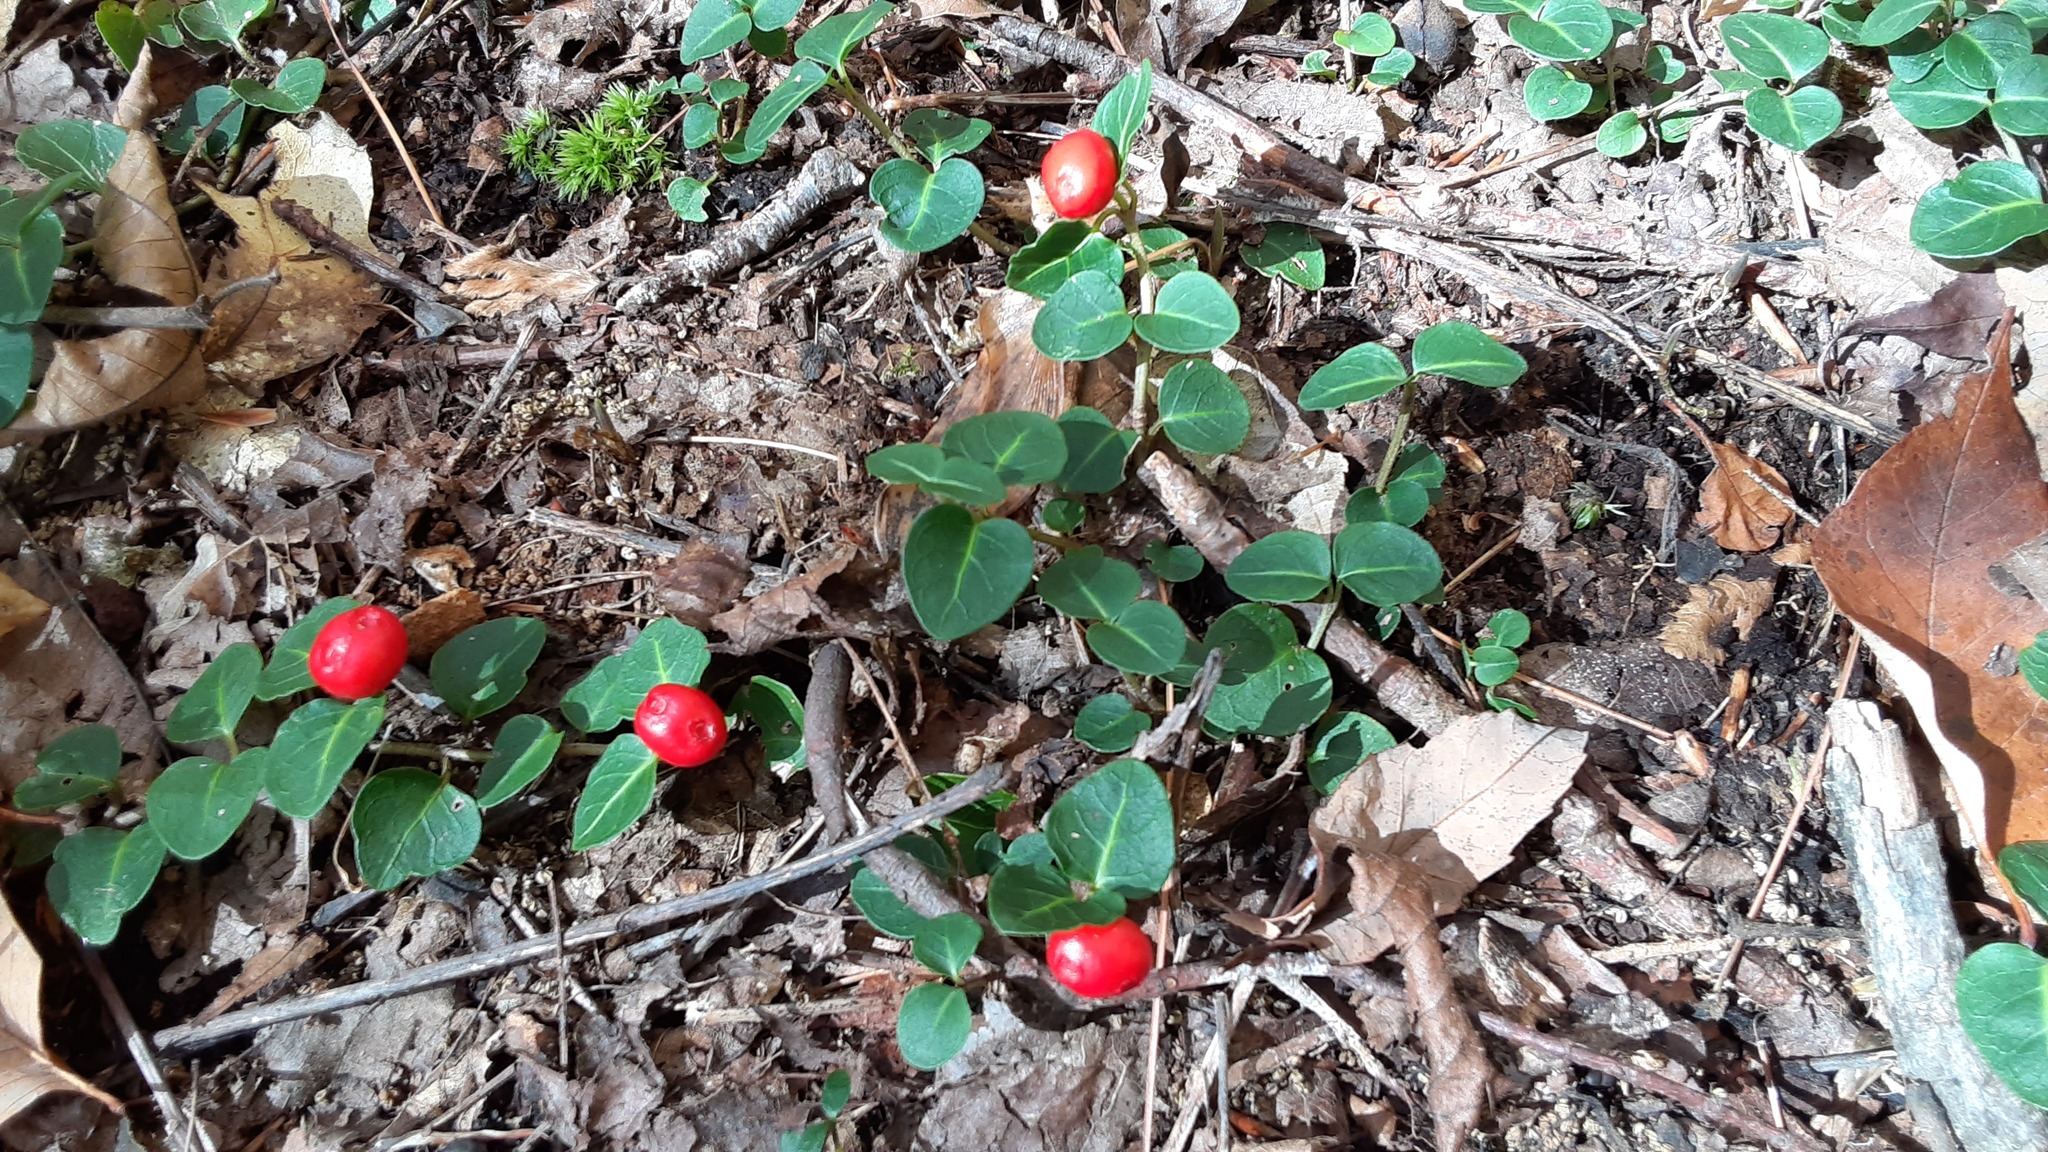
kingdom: Plantae
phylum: Tracheophyta
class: Magnoliopsida
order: Gentianales
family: Rubiaceae
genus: Mitchella
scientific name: Mitchella repens
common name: Partridge-berry
